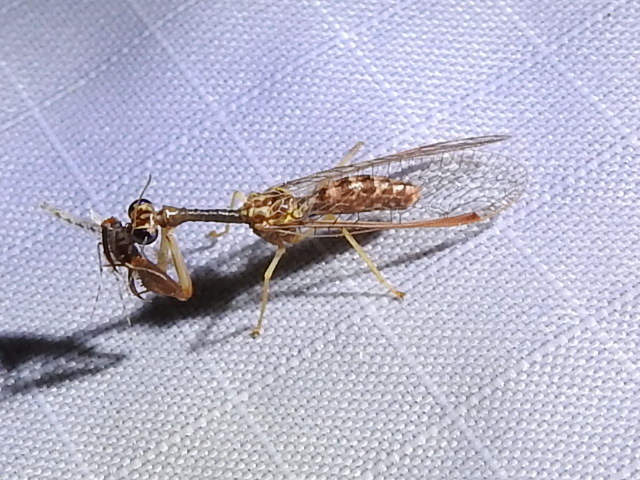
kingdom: Animalia
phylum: Arthropoda
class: Insecta
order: Neuroptera
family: Mantispidae
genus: Dicromantispa
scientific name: Dicromantispa sayi
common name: Say's mantidfly
